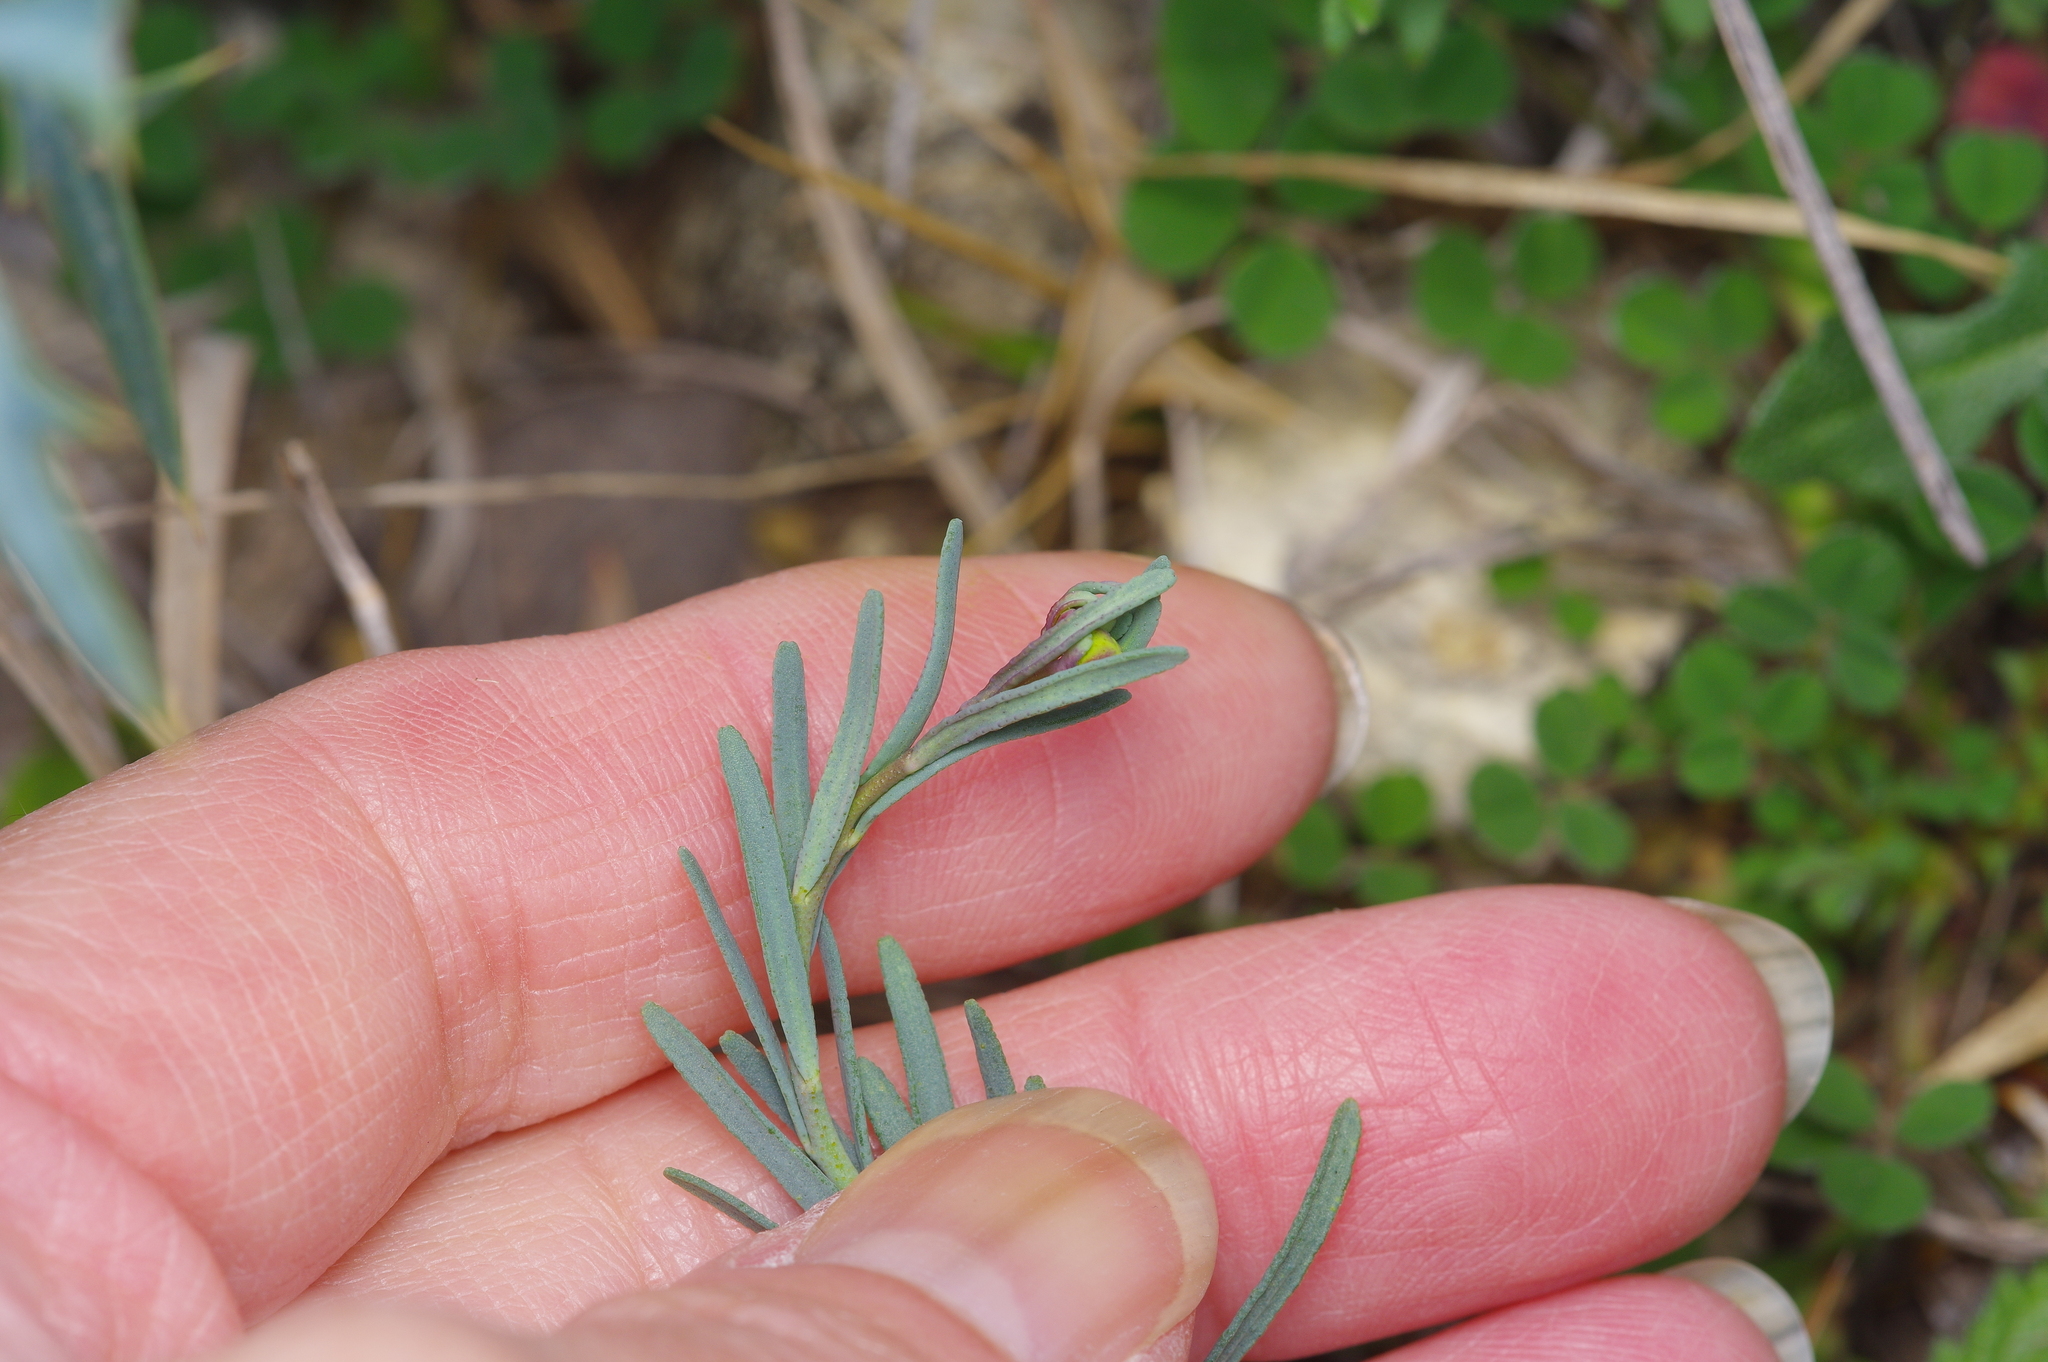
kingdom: Plantae
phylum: Tracheophyta
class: Magnoliopsida
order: Sapindales
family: Rutaceae
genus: Thamnosma
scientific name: Thamnosma texana
